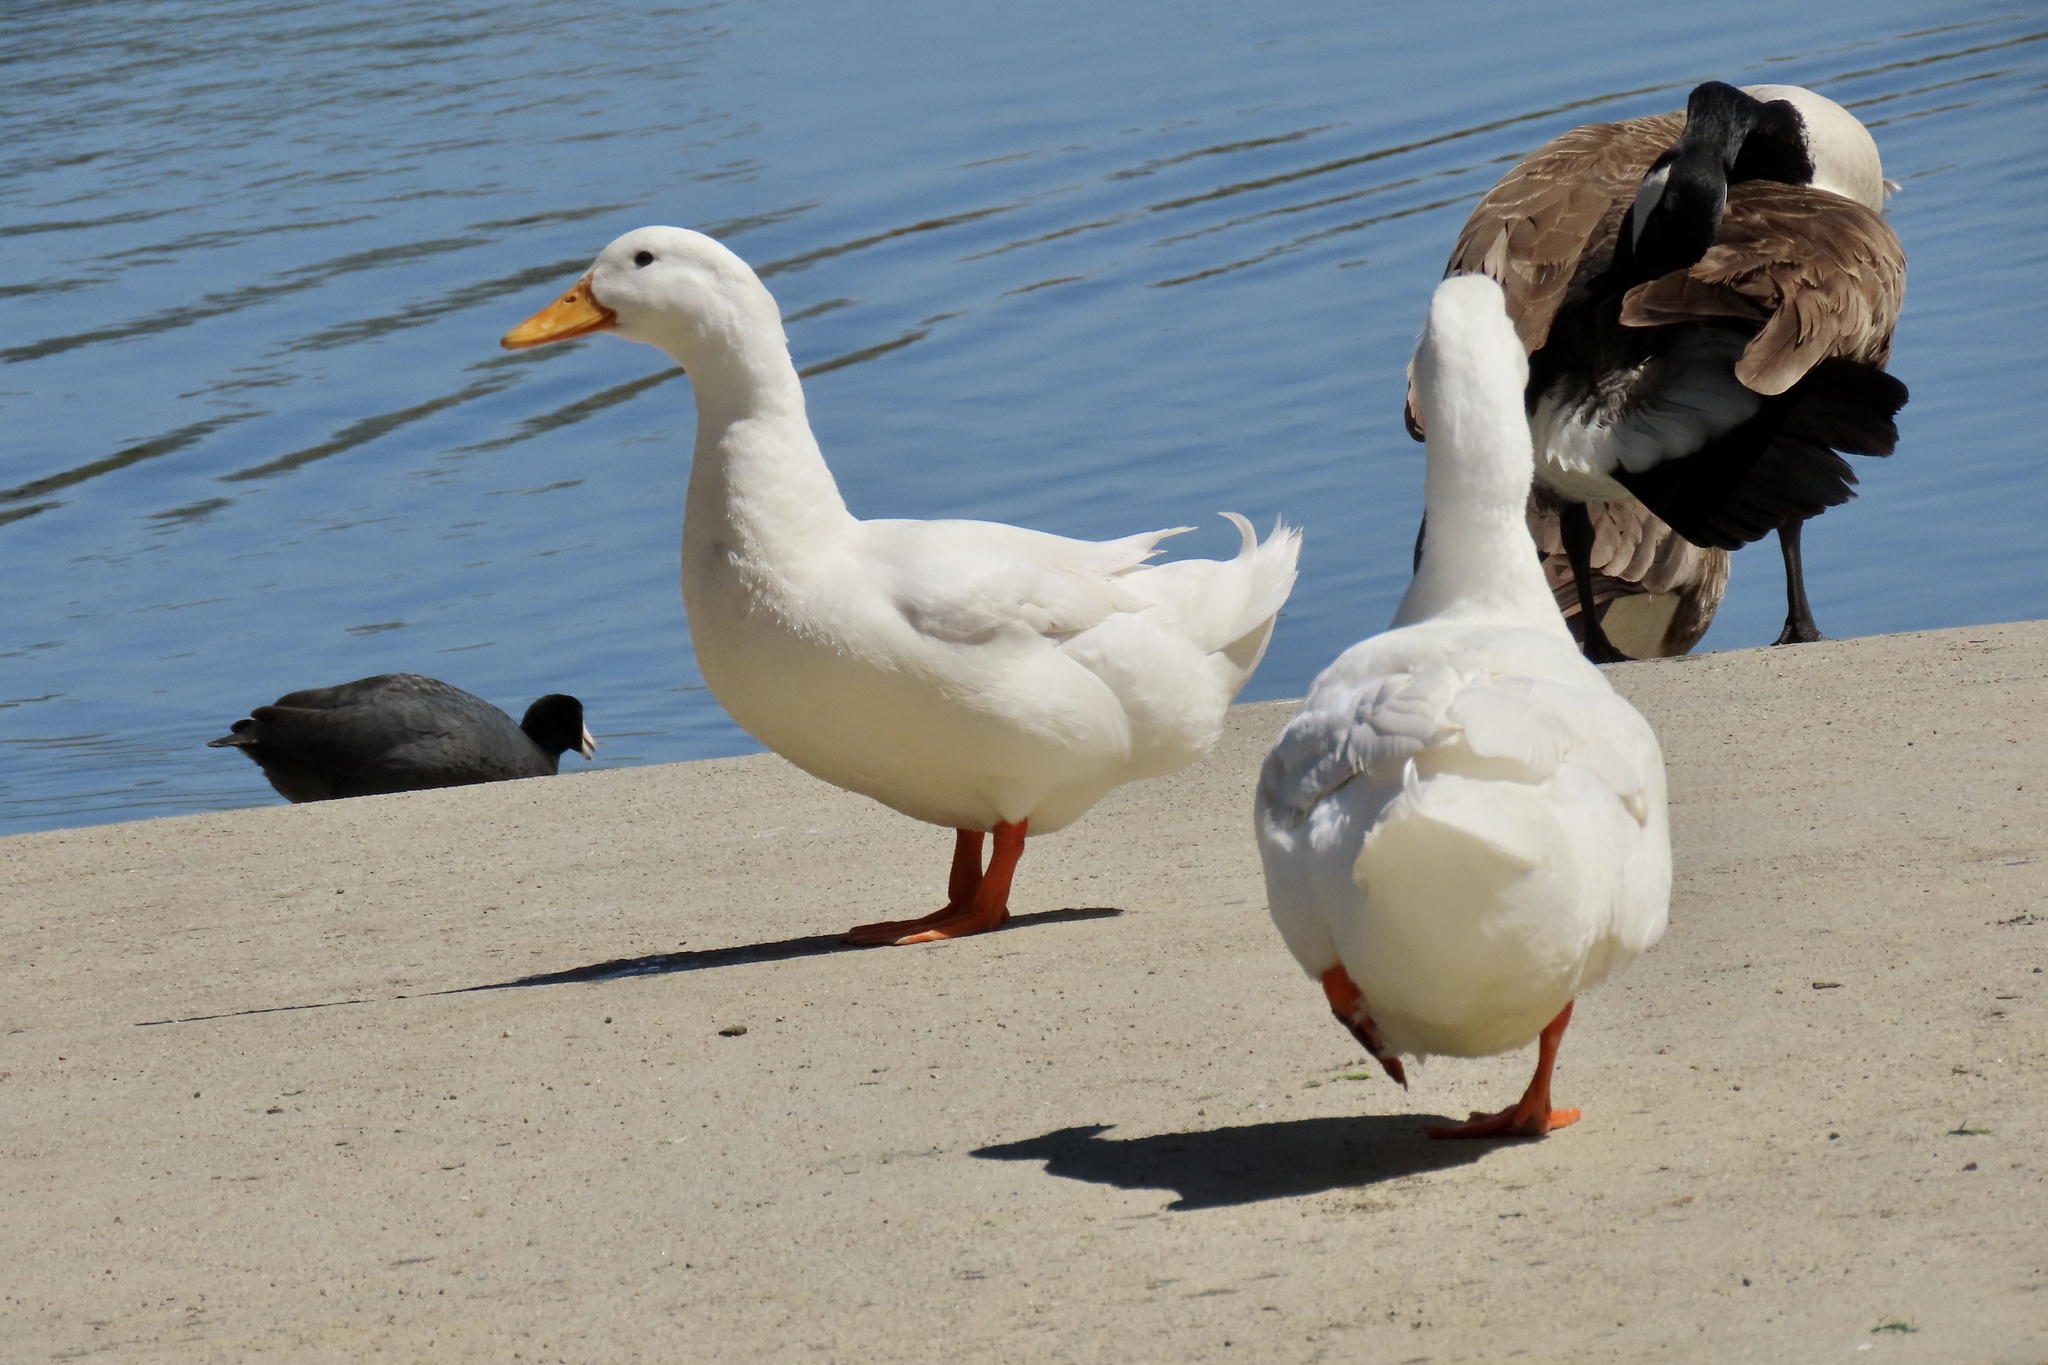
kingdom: Animalia
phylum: Chordata
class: Aves
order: Anseriformes
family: Anatidae
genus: Anas
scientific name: Anas platyrhynchos
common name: Mallard
